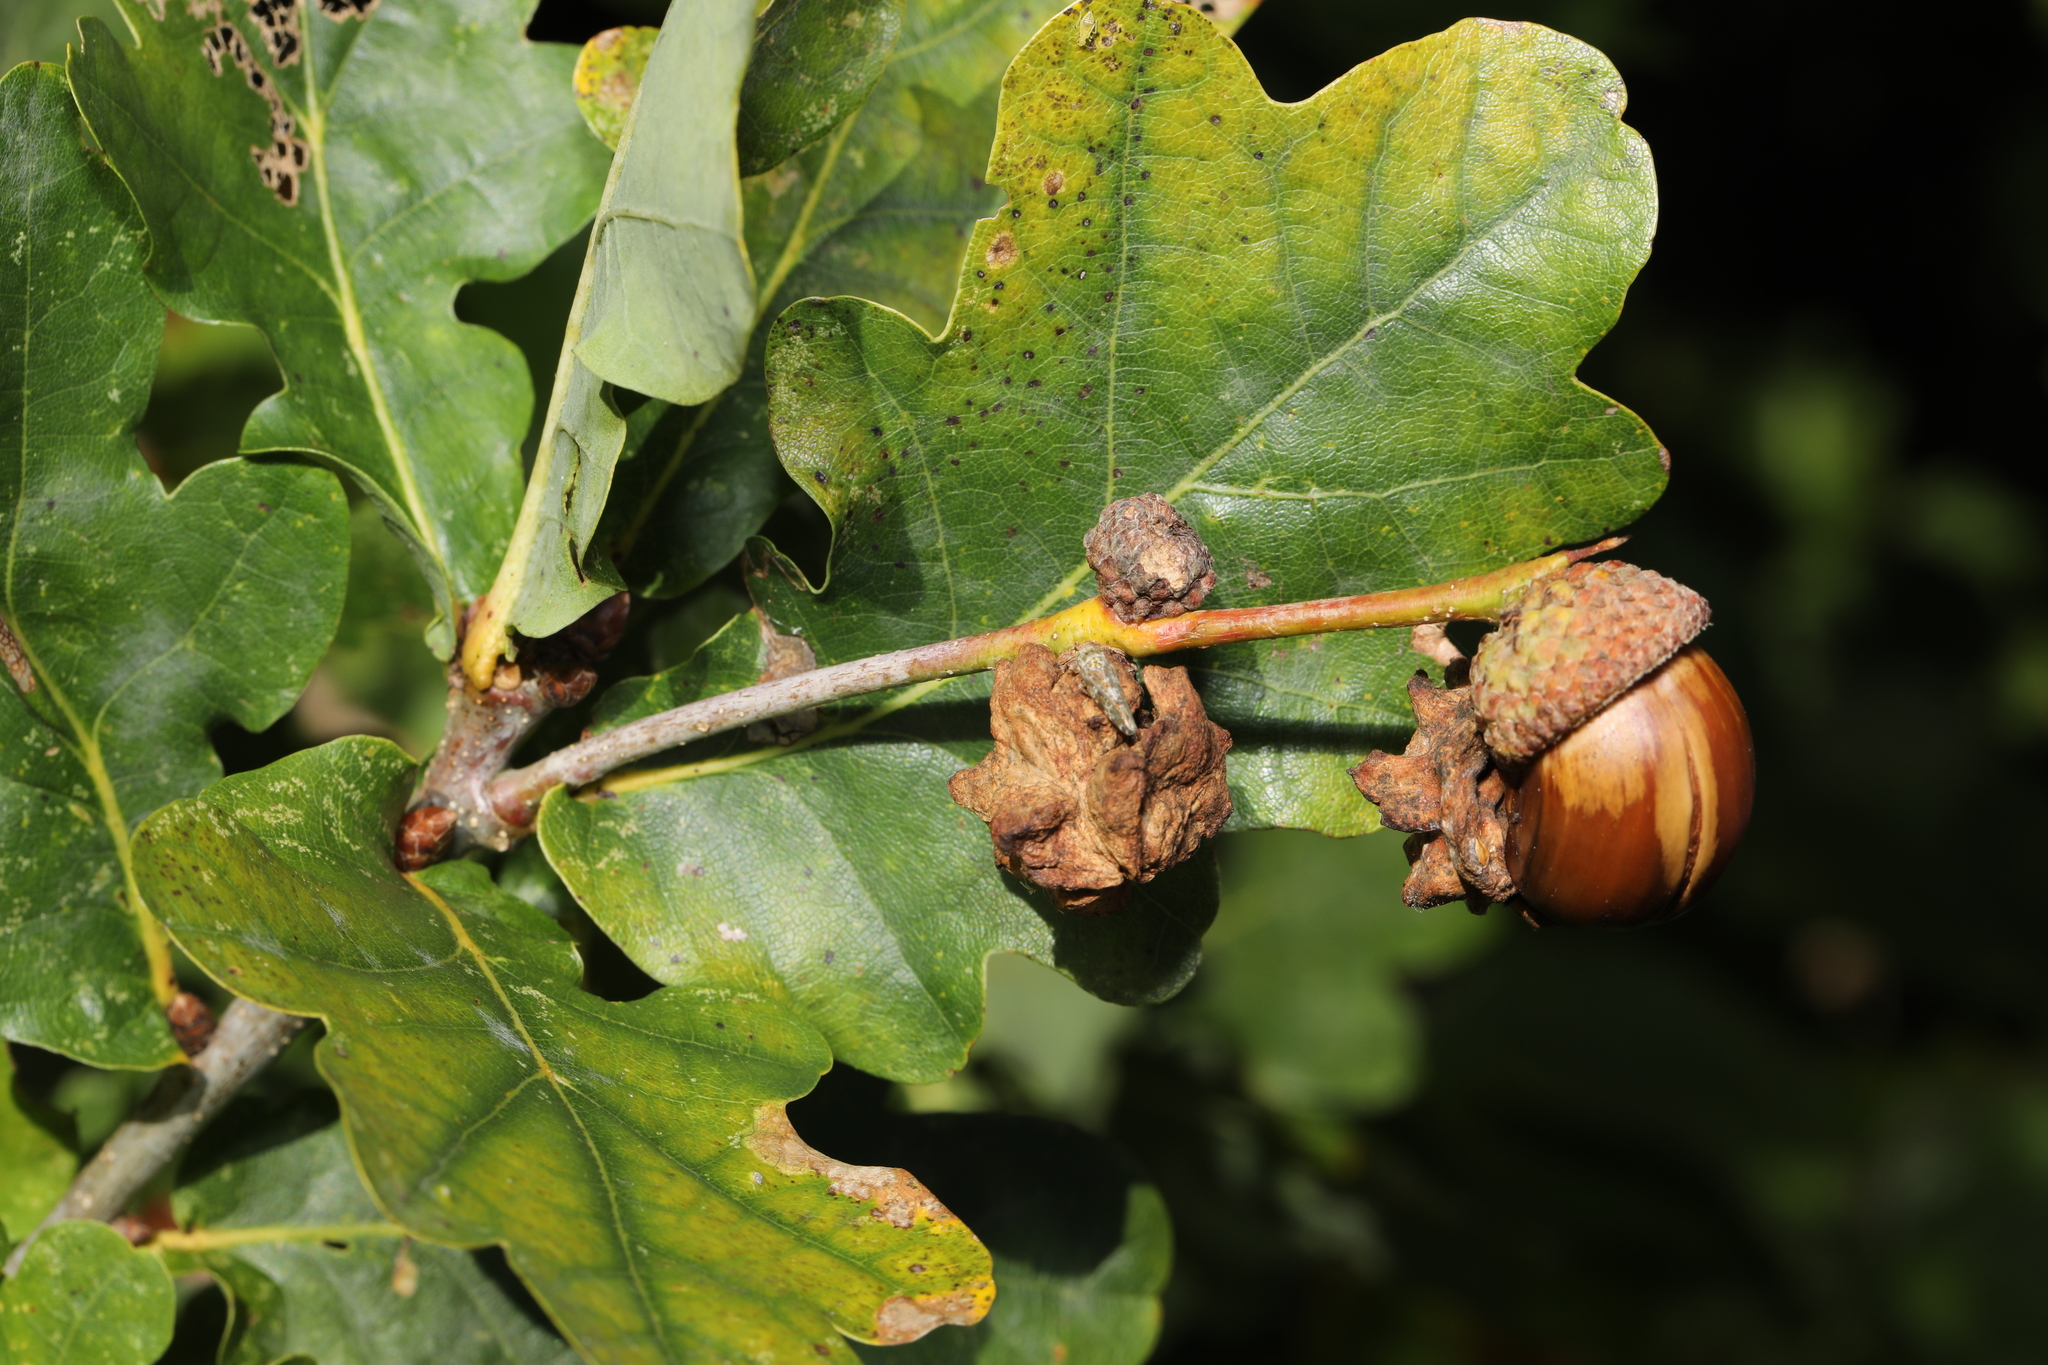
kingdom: Animalia
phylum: Arthropoda
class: Insecta
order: Hymenoptera
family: Cynipidae
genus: Andricus
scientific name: Andricus quercuscalicis
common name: Knopper gall
